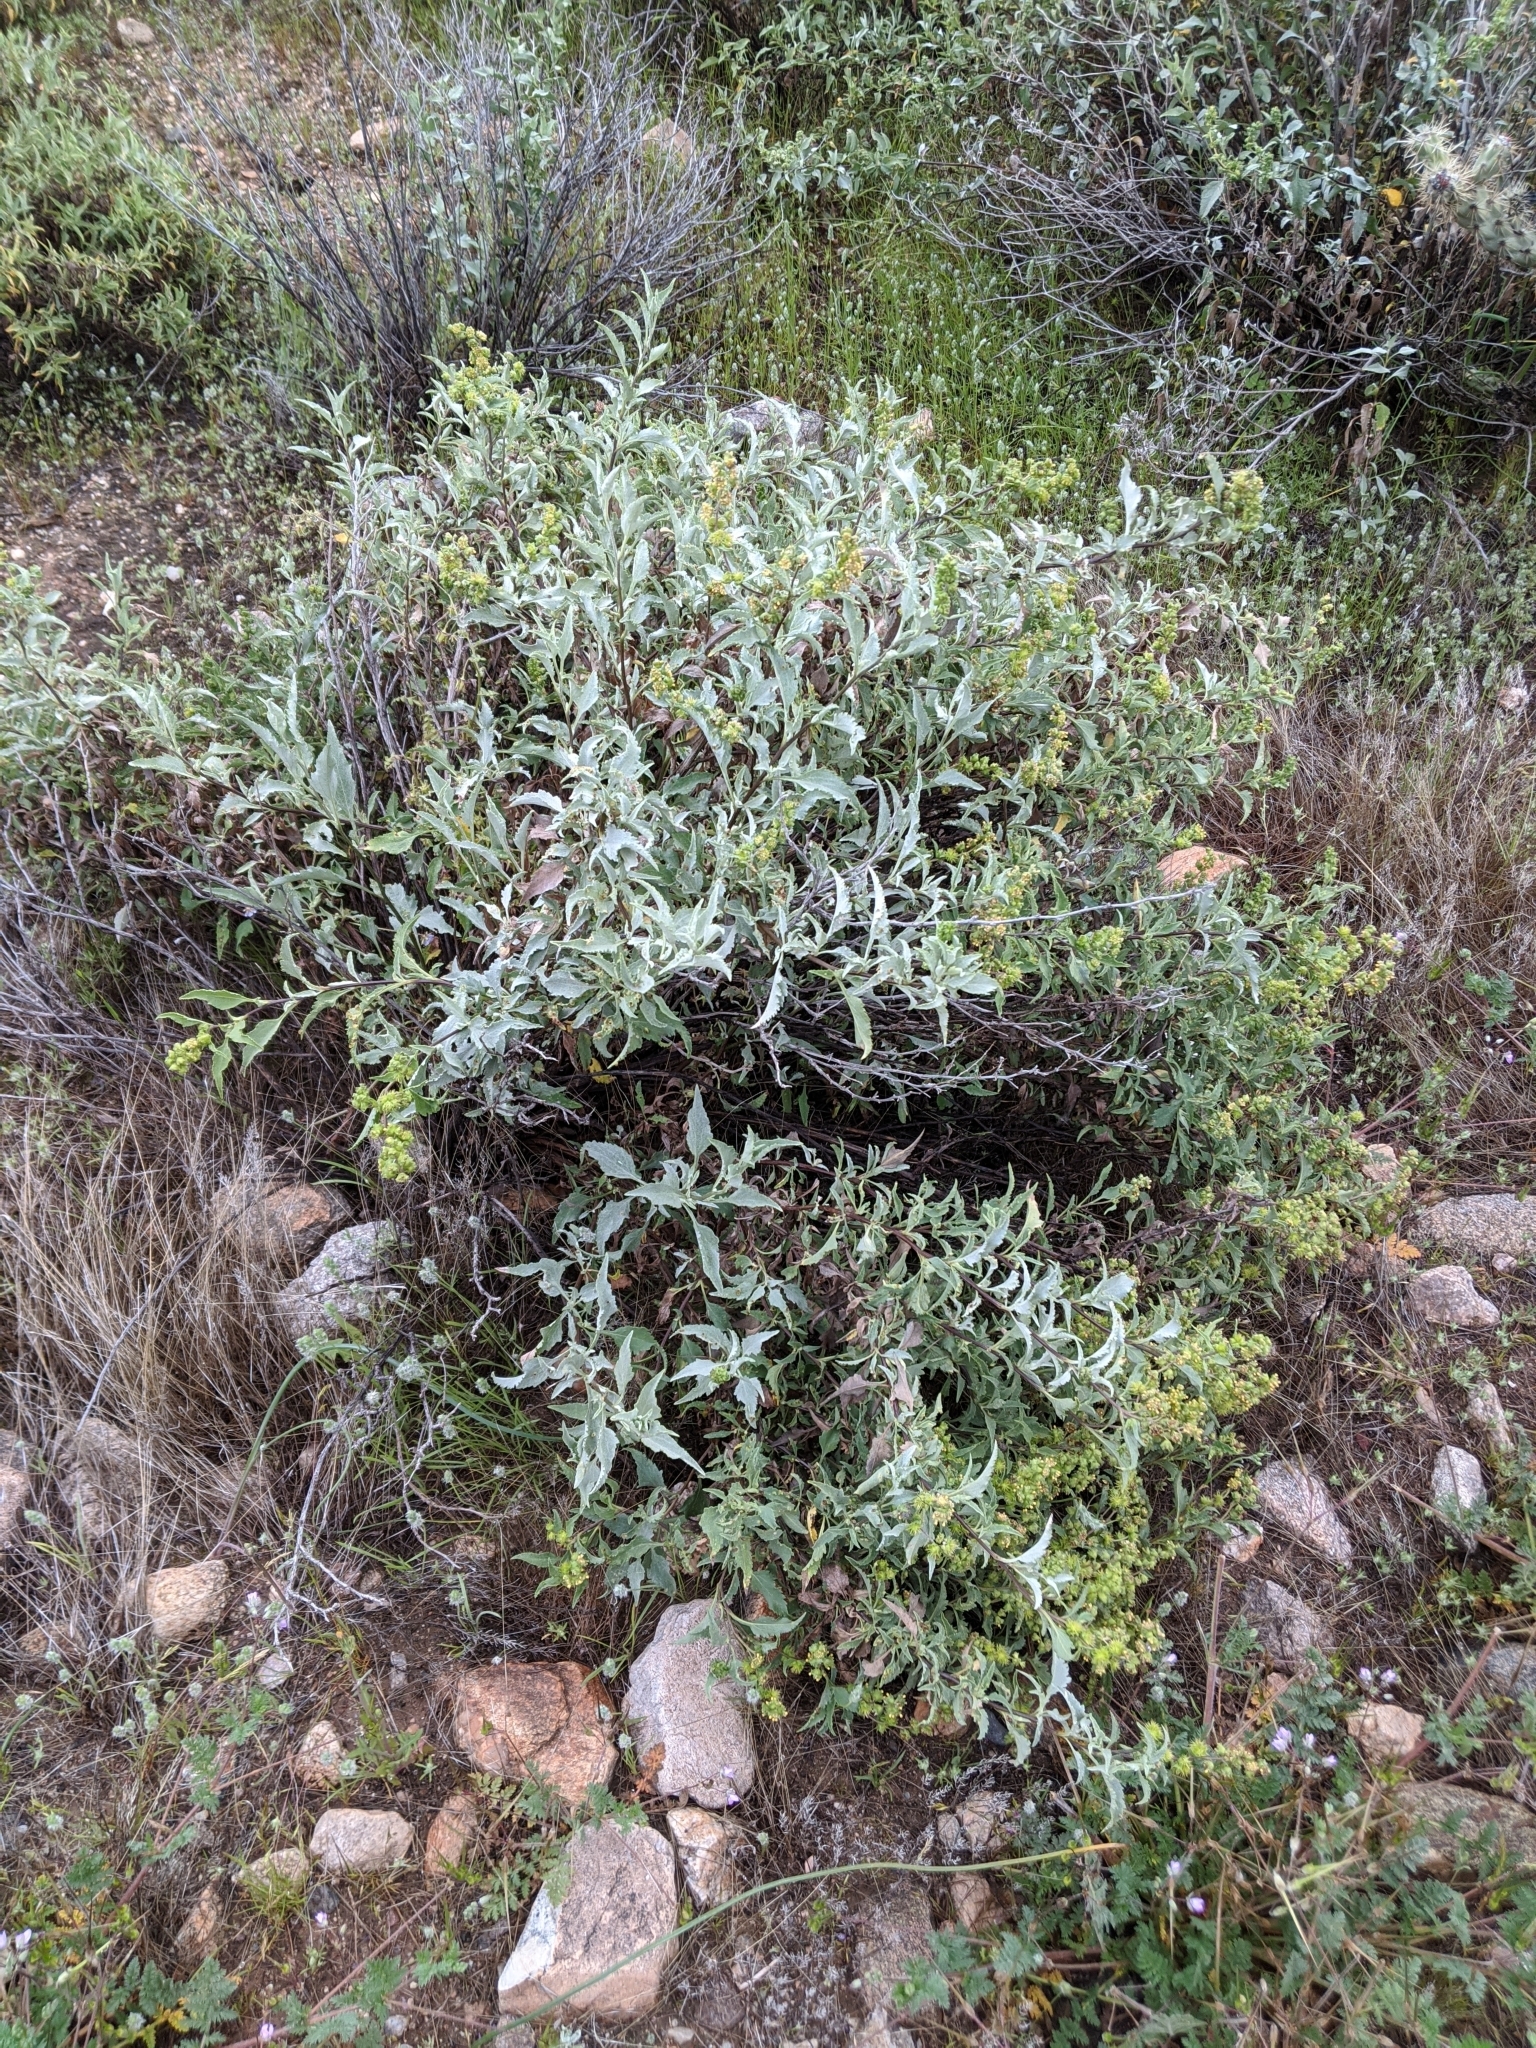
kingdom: Plantae
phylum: Tracheophyta
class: Magnoliopsida
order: Asterales
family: Asteraceae
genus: Ambrosia
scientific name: Ambrosia deltoidea
